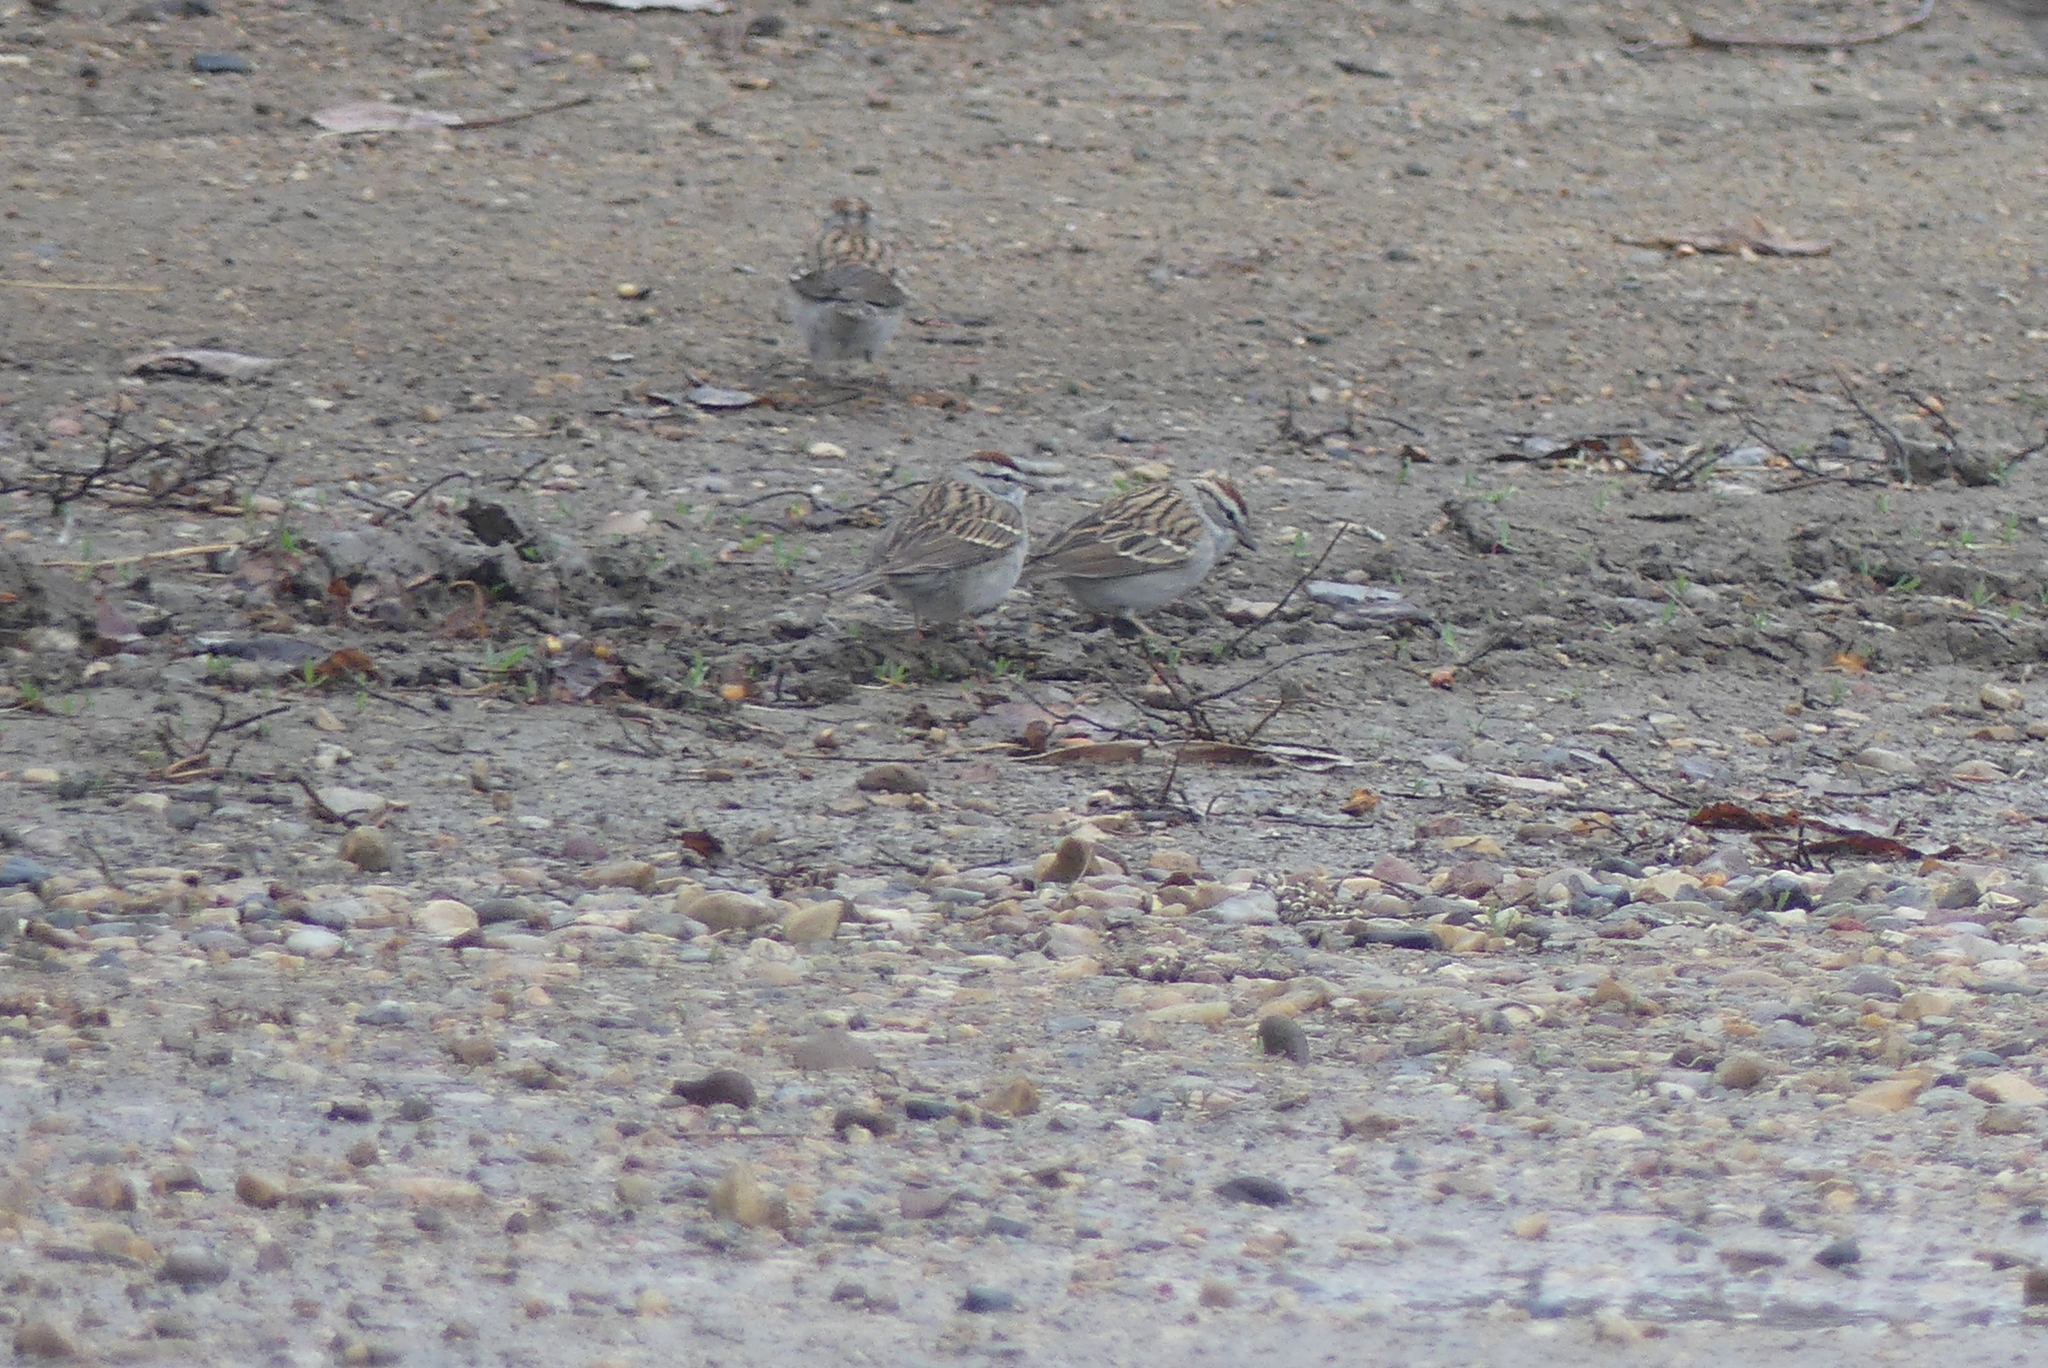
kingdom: Animalia
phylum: Chordata
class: Aves
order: Passeriformes
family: Passerellidae
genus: Spizella
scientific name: Spizella passerina
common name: Chipping sparrow
